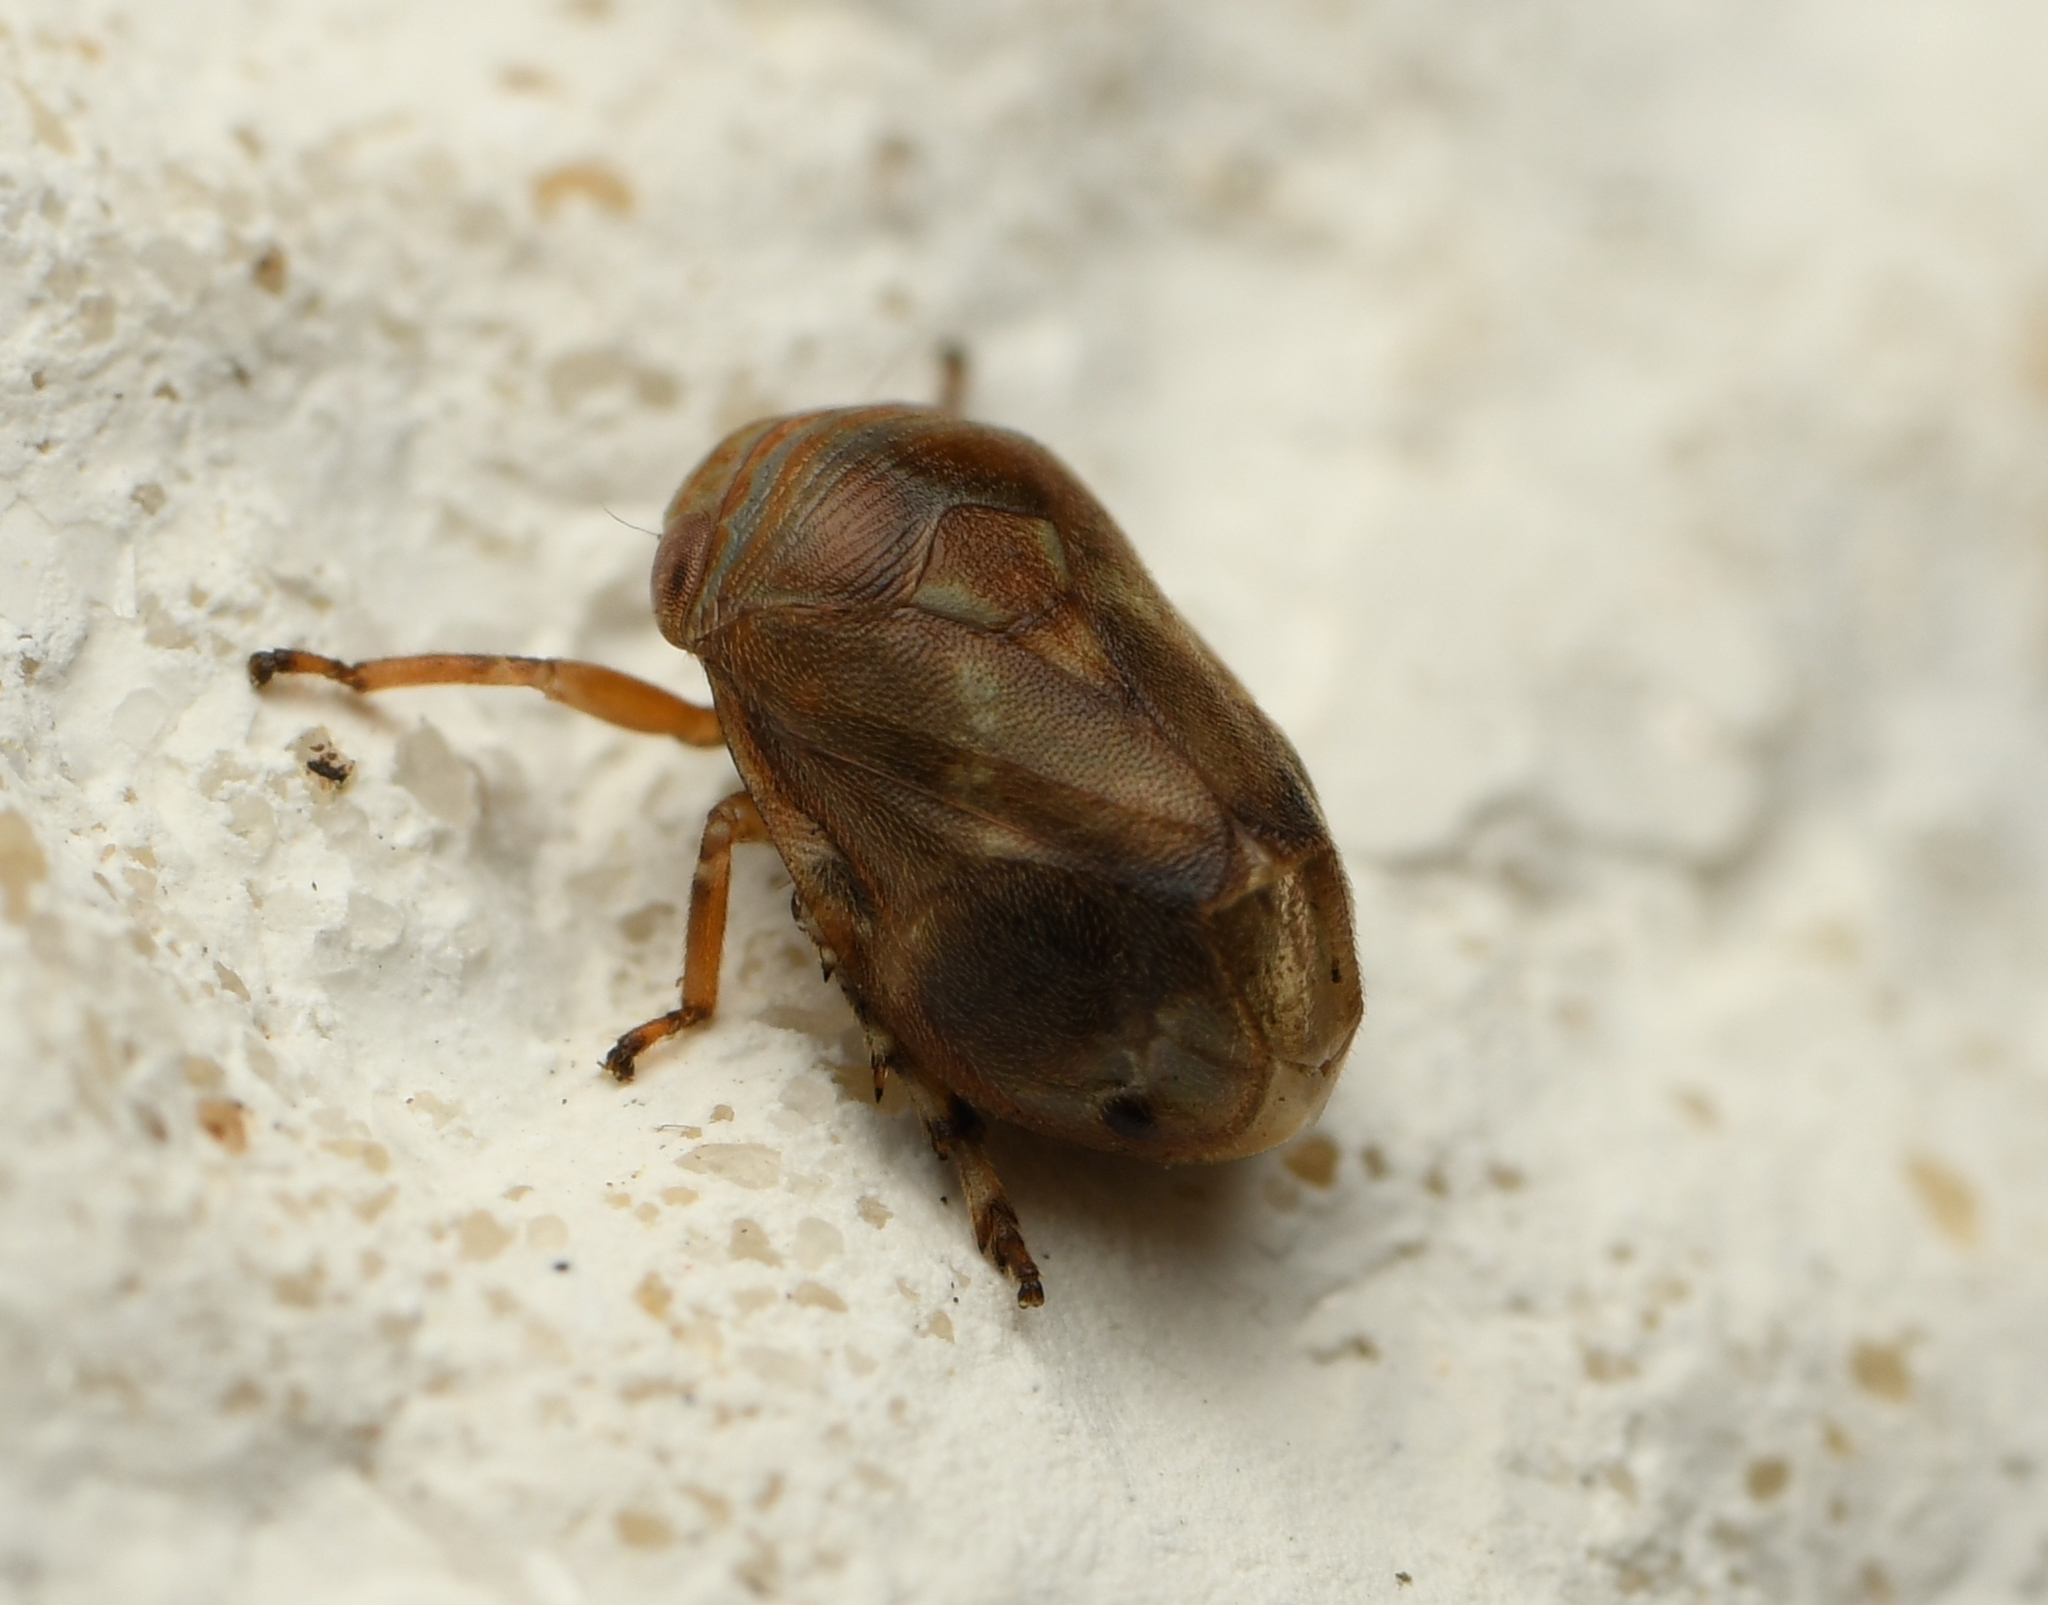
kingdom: Animalia
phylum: Arthropoda
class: Insecta
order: Hemiptera
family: Clastopteridae
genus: Clastoptera
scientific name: Clastoptera querci
